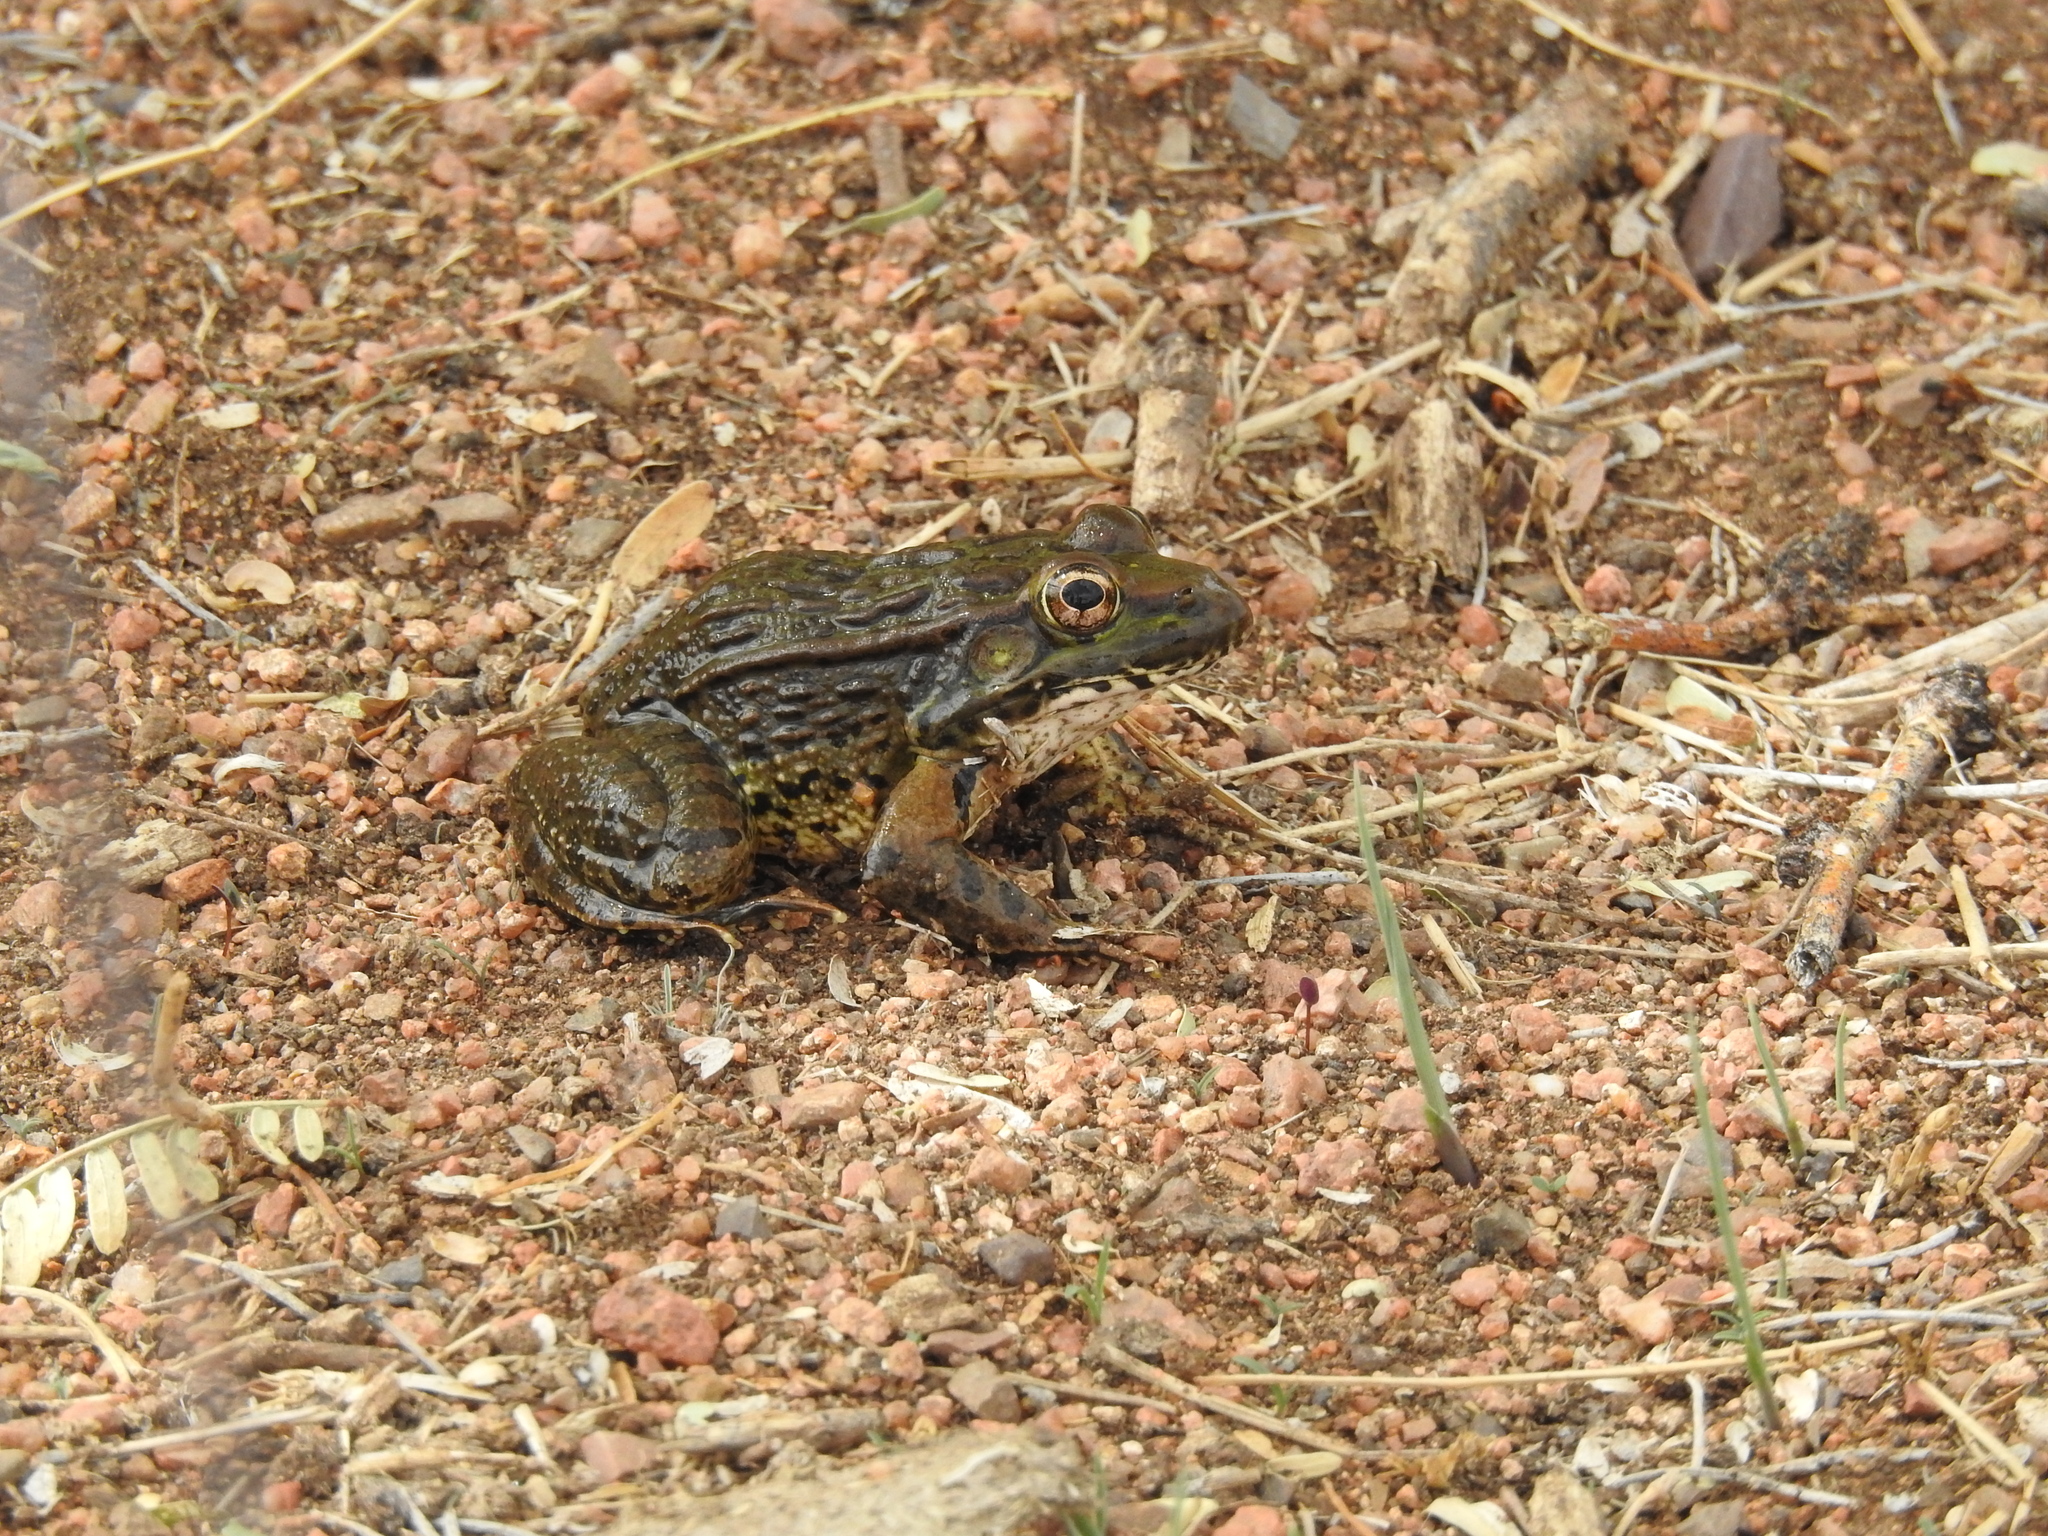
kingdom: Animalia
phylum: Chordata
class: Amphibia
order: Anura
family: Ranidae
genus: Lithobates
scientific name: Lithobates yavapaiensis
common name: Lowland leopard frog
